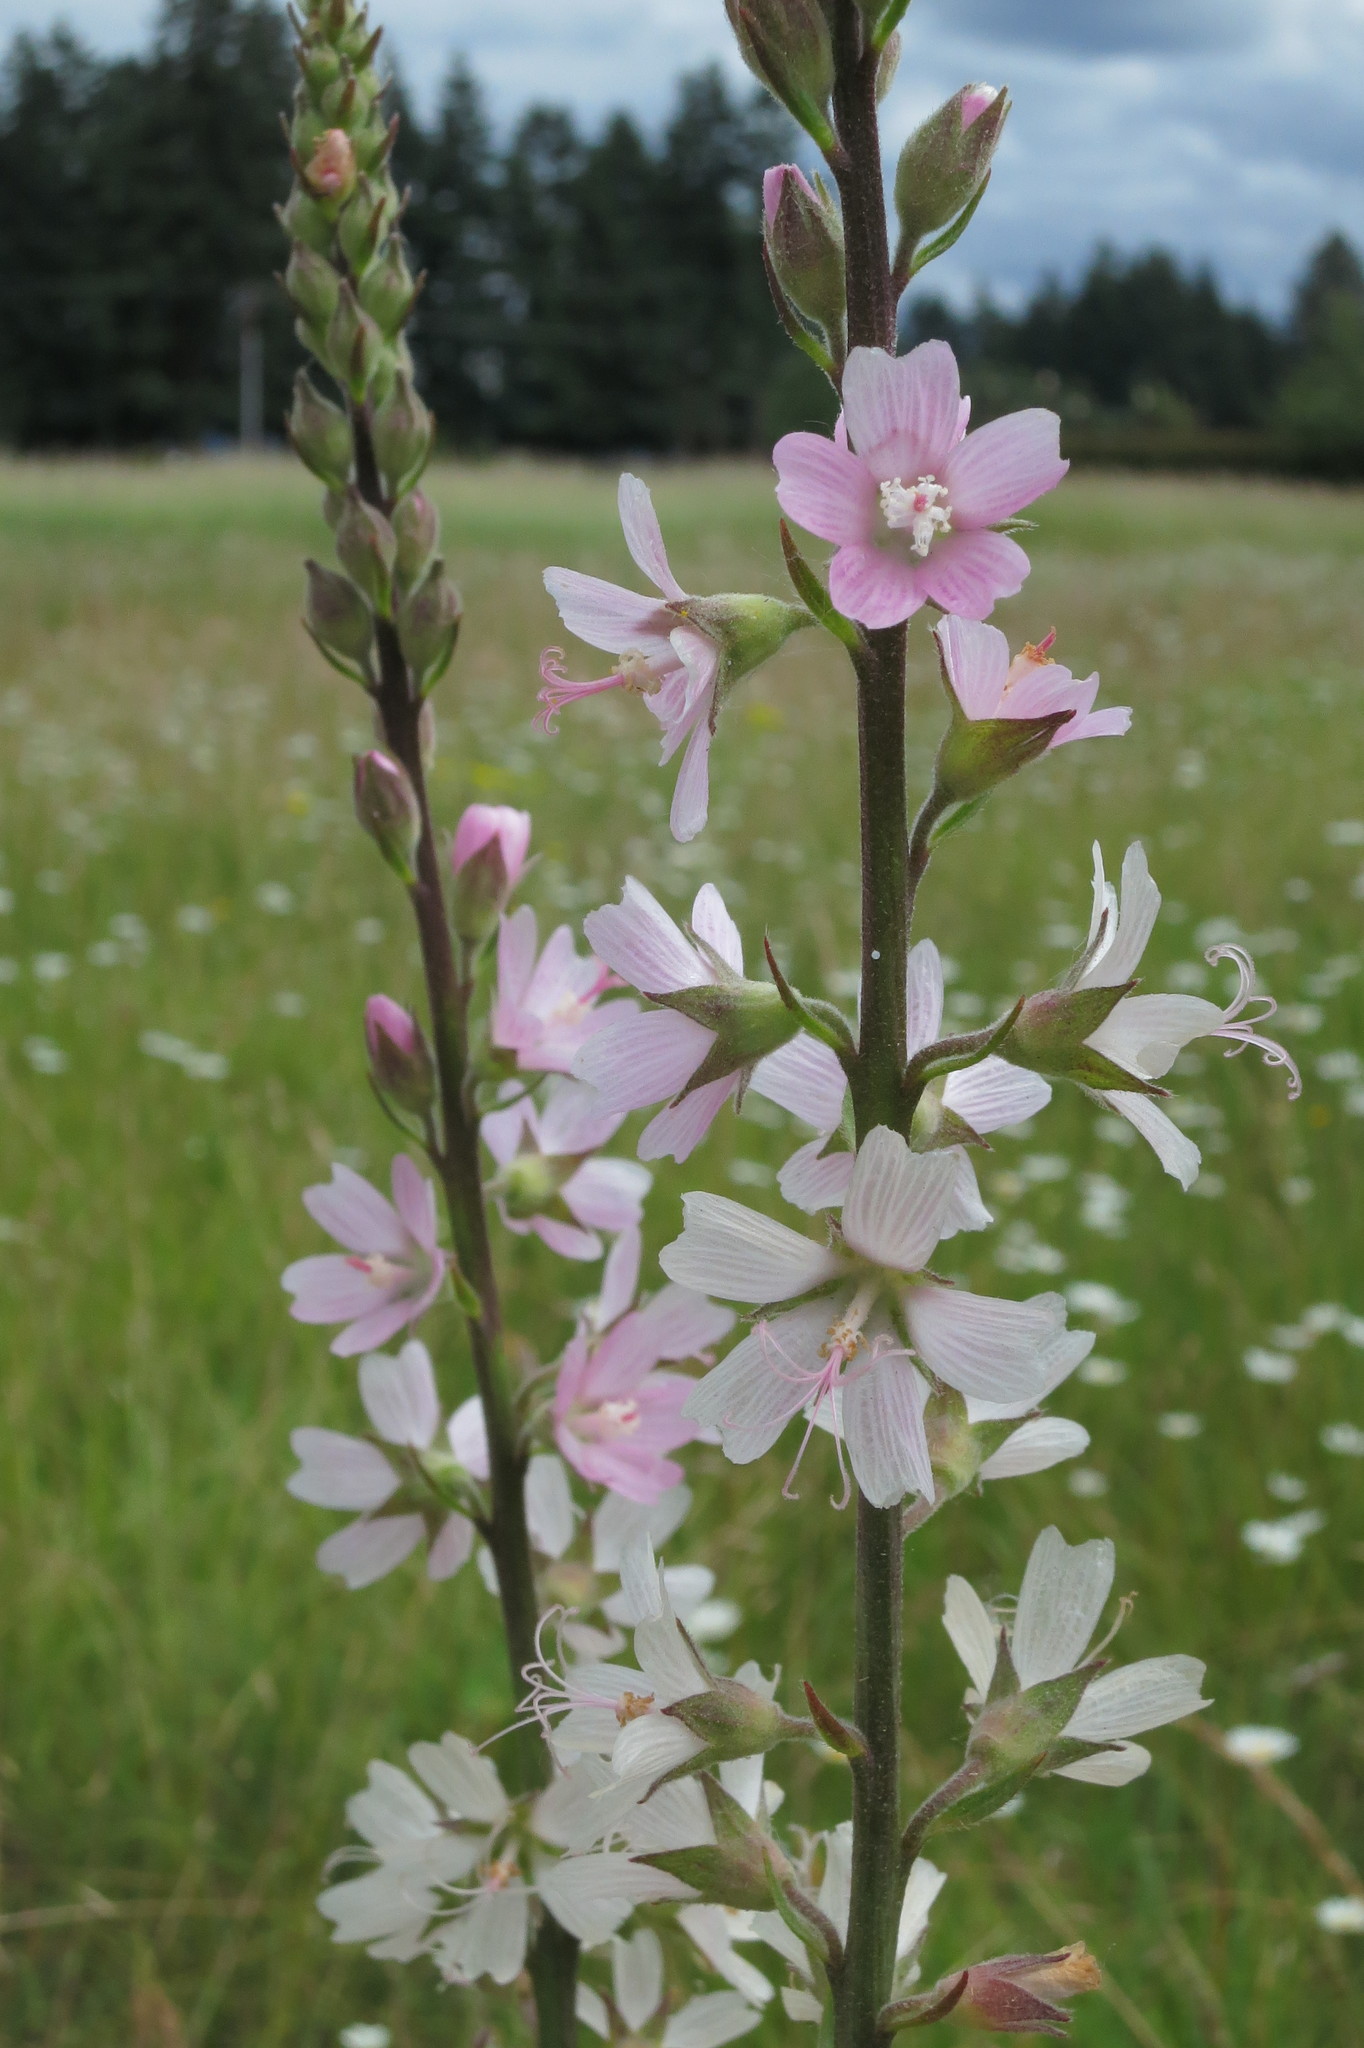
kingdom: Plantae
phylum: Tracheophyta
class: Magnoliopsida
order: Malvales
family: Malvaceae
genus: Sidalcea
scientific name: Sidalcea campestris
